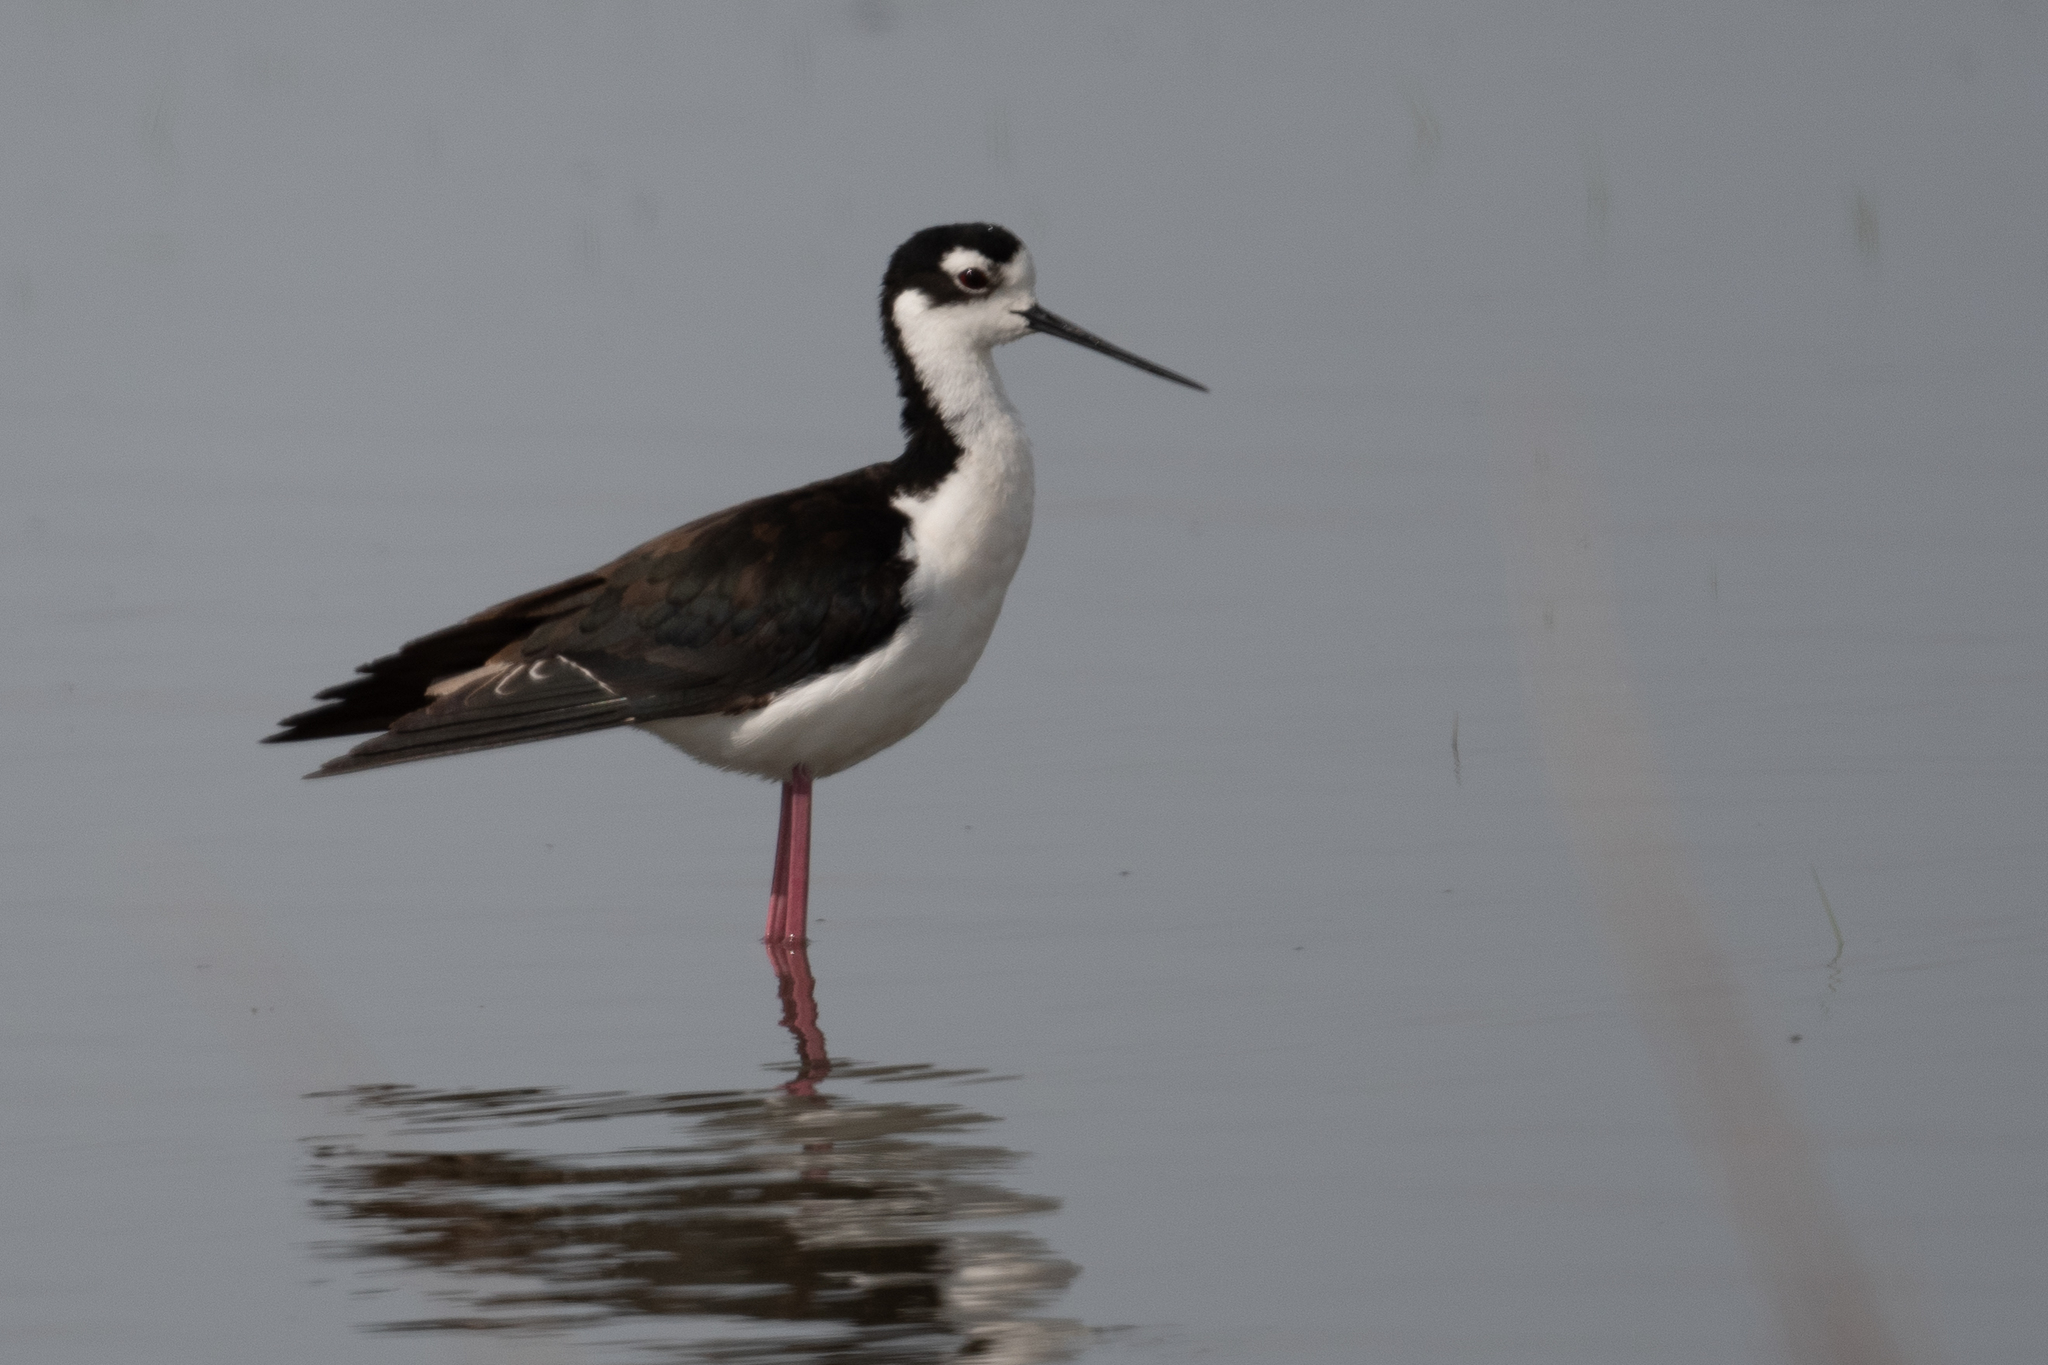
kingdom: Animalia
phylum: Chordata
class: Aves
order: Charadriiformes
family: Recurvirostridae
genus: Himantopus
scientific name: Himantopus mexicanus
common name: Black-necked stilt
